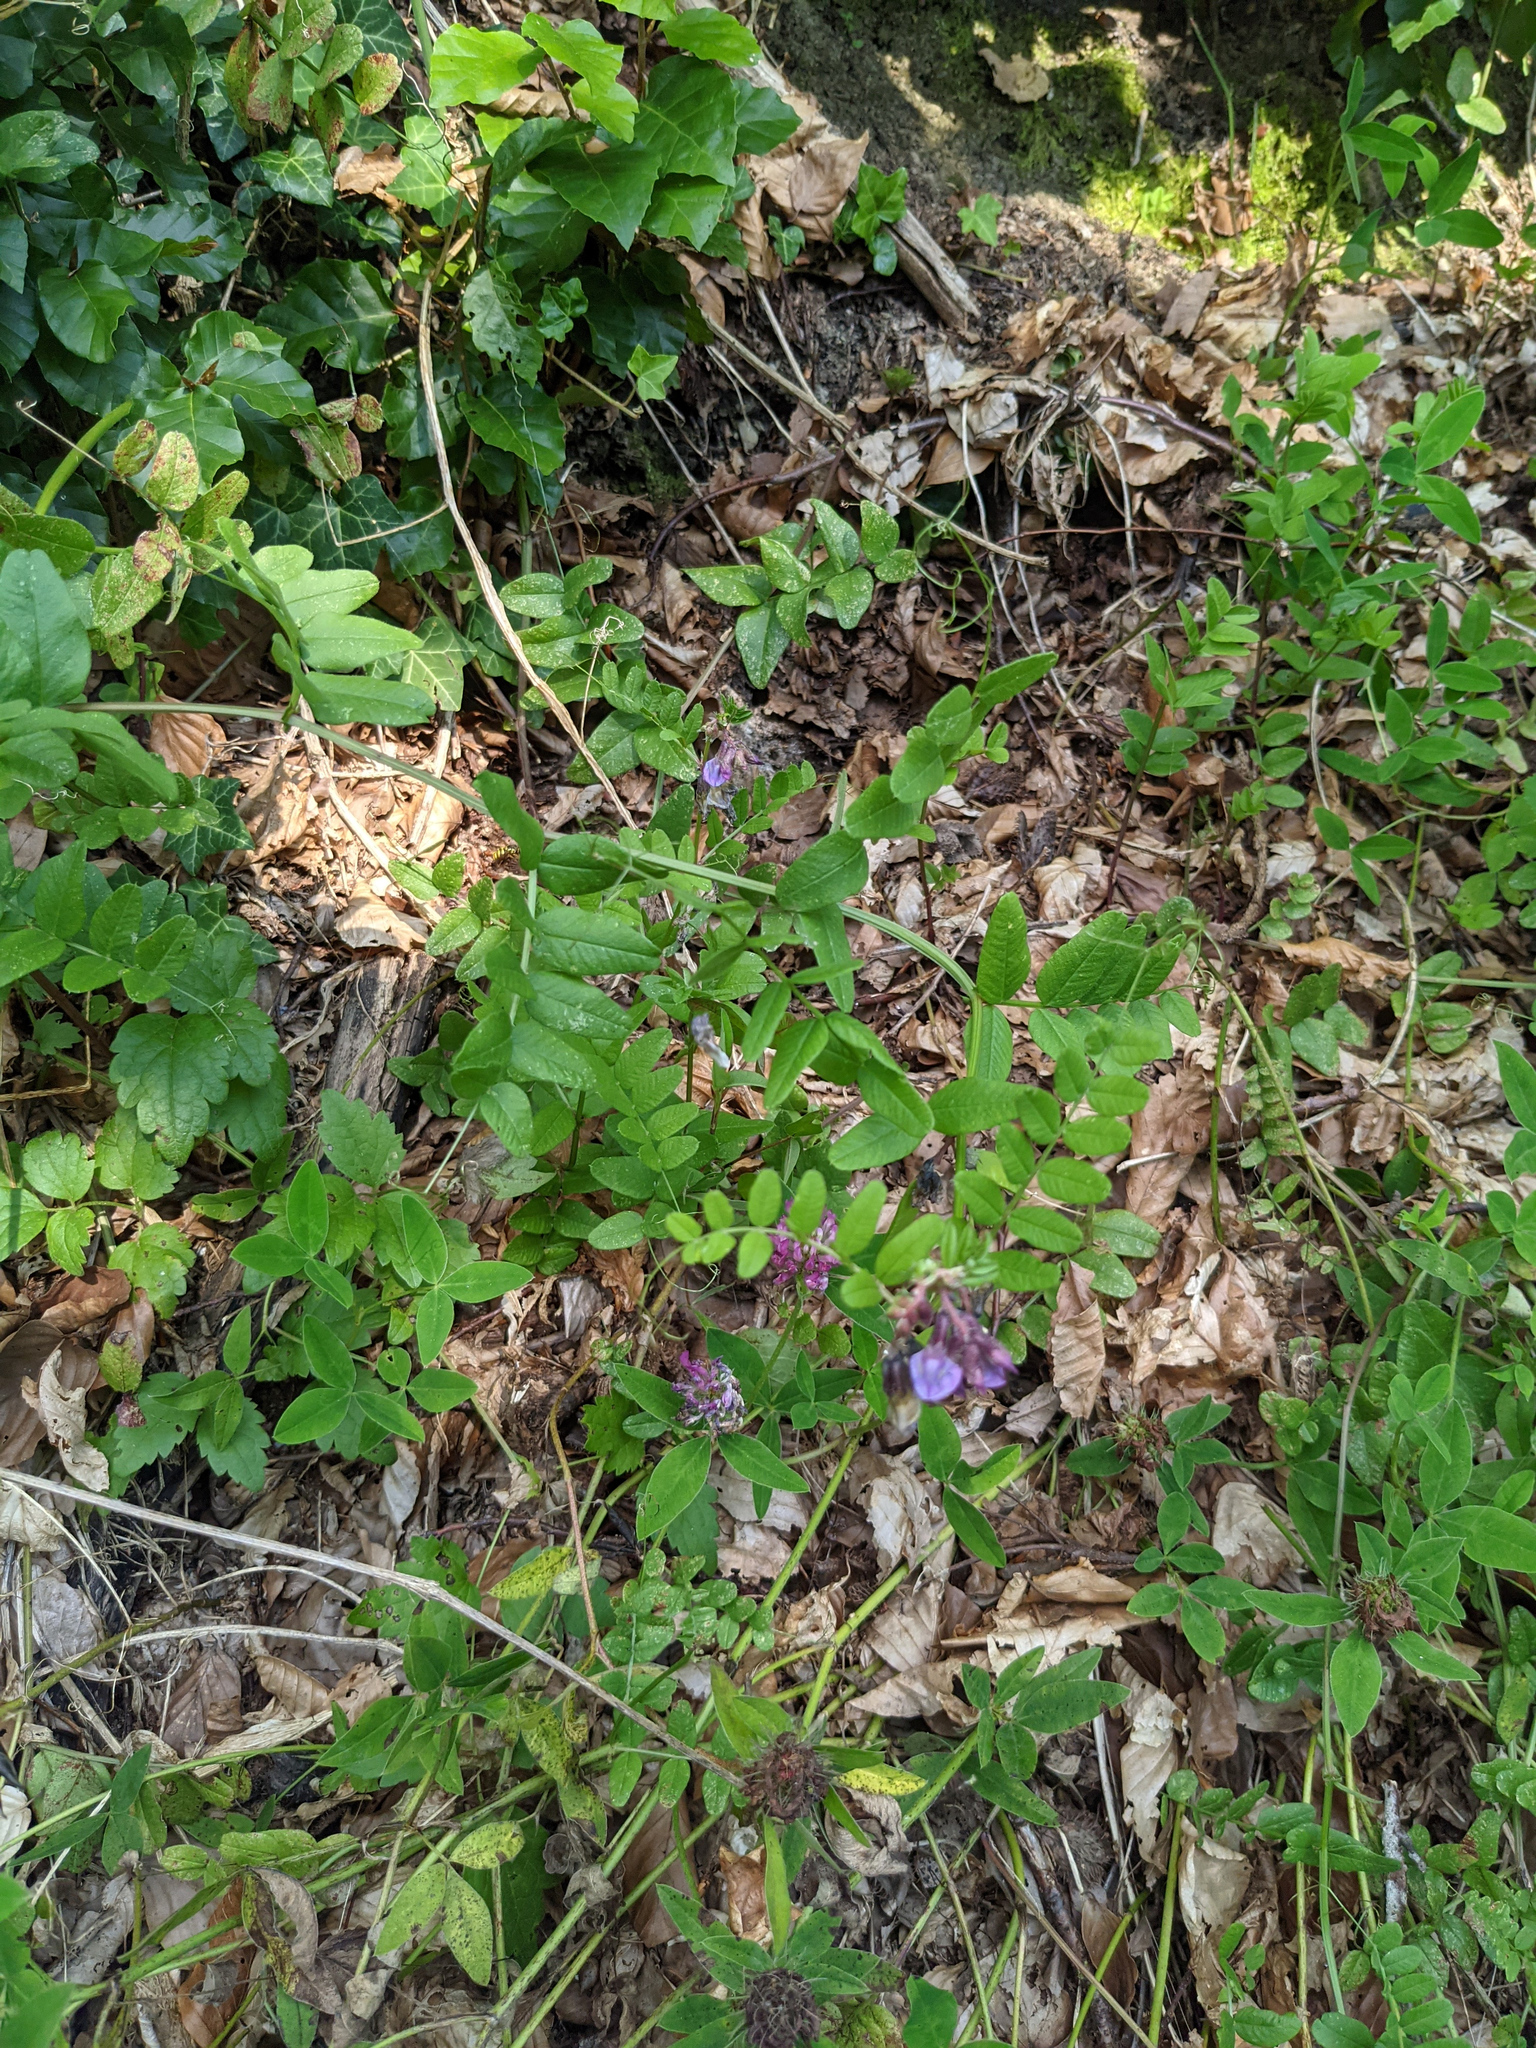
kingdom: Plantae
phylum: Tracheophyta
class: Magnoliopsida
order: Fabales
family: Fabaceae
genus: Vicia
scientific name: Vicia sepium
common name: Bush vetch
